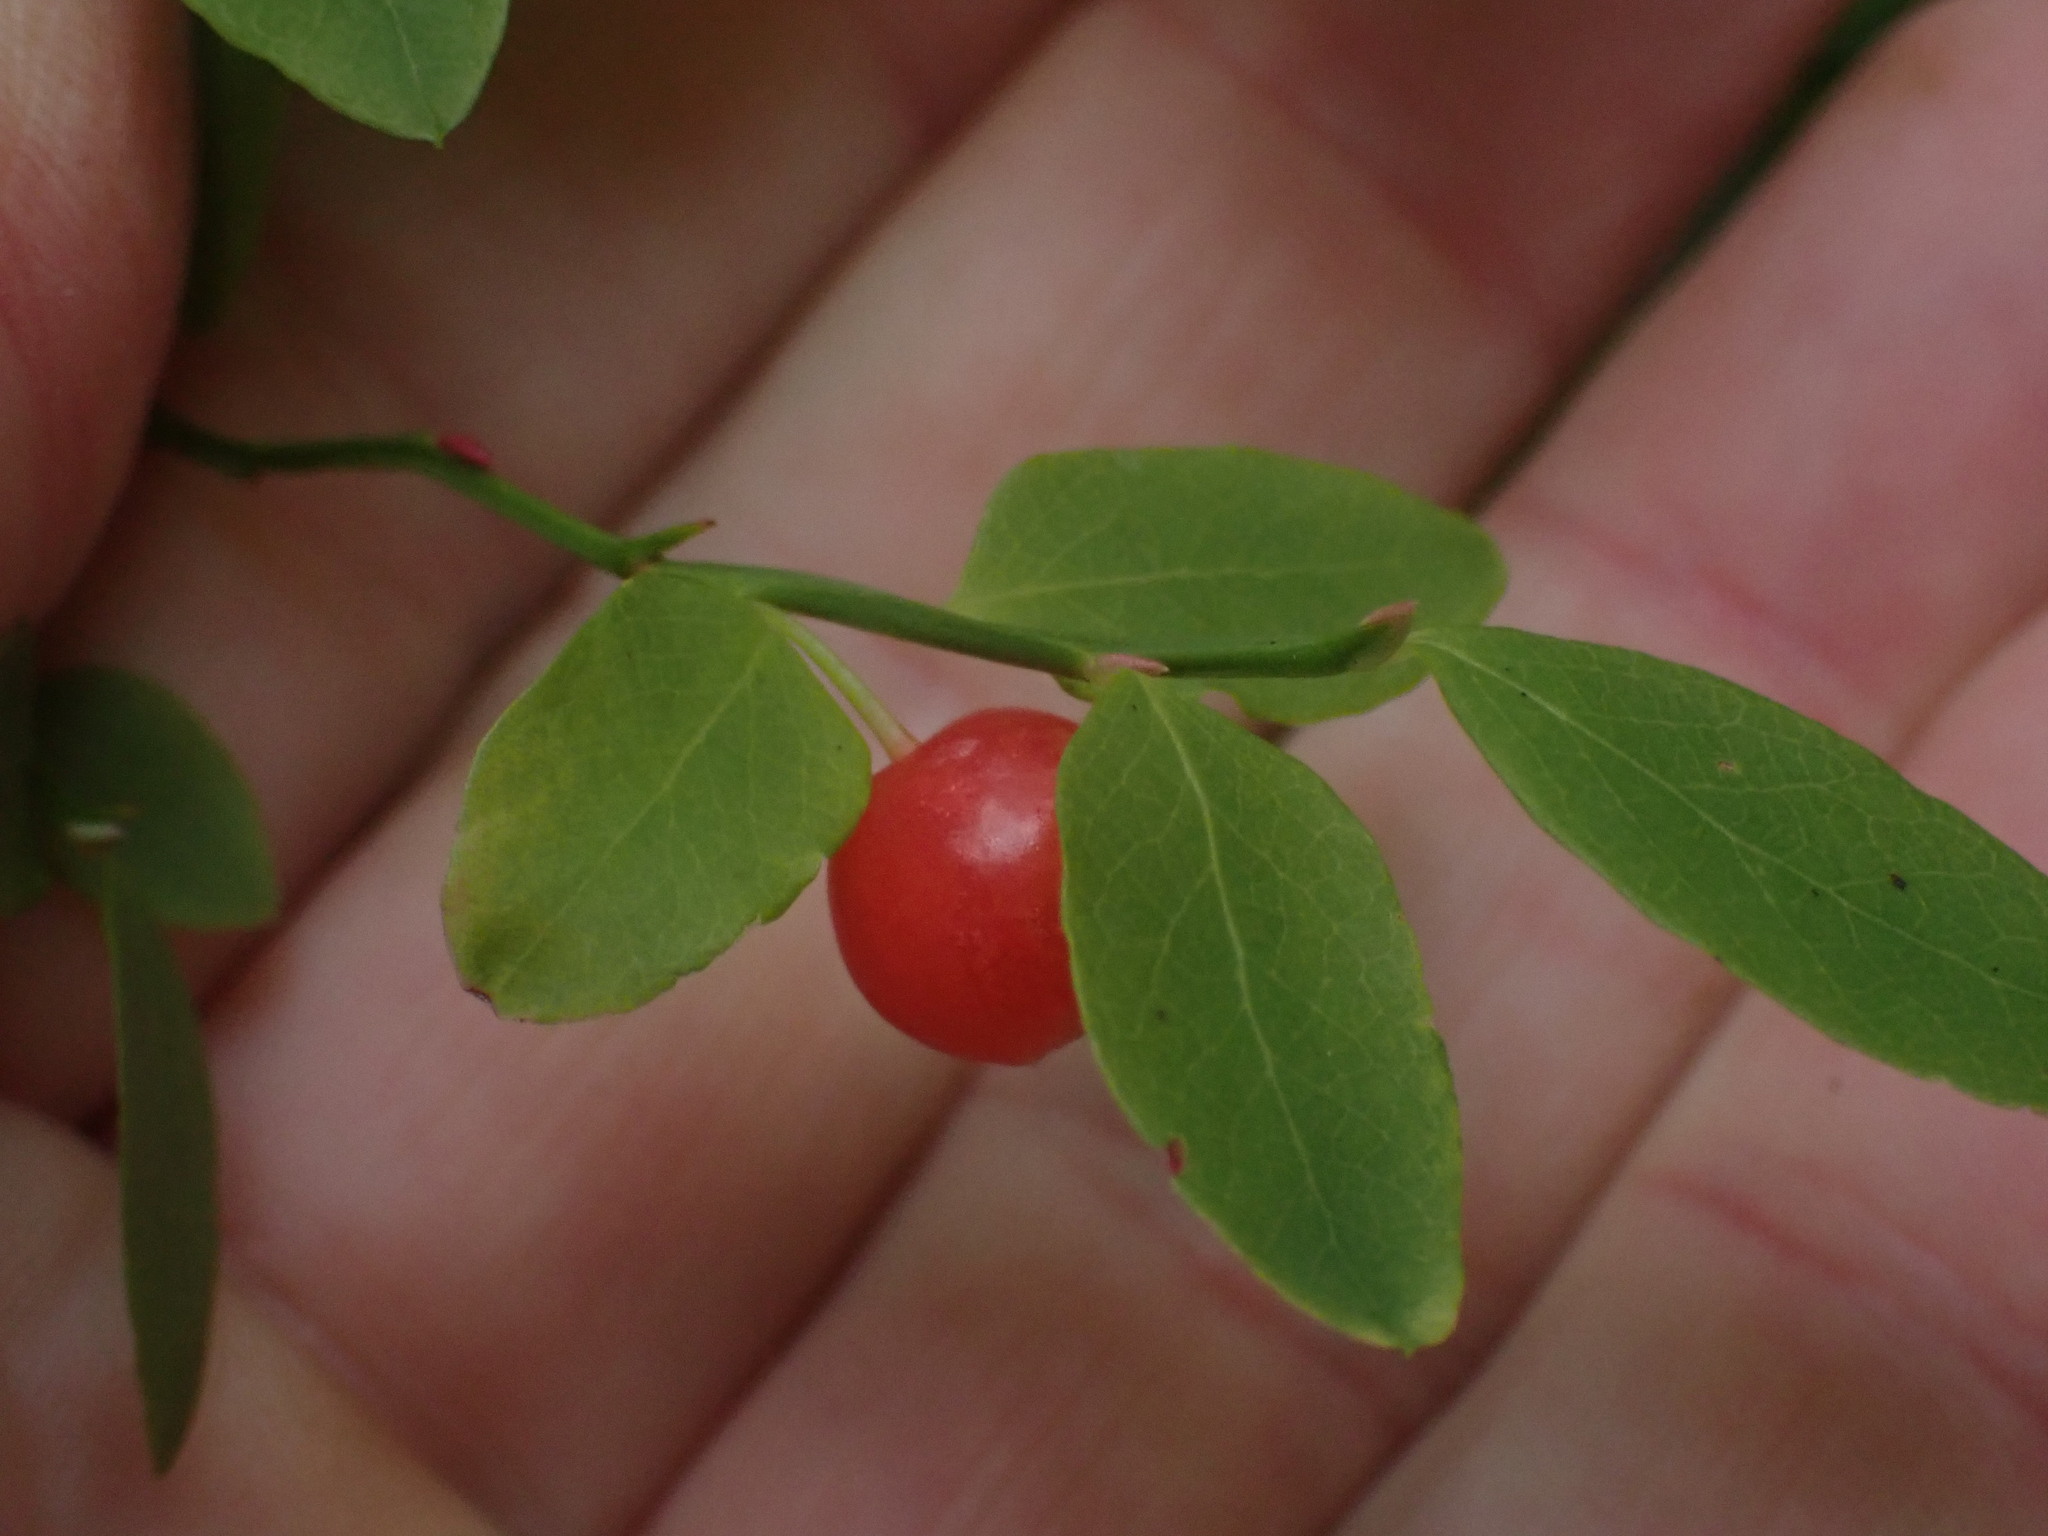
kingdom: Plantae
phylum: Tracheophyta
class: Magnoliopsida
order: Ericales
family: Ericaceae
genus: Vaccinium
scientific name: Vaccinium parvifolium
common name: Red-huckleberry
